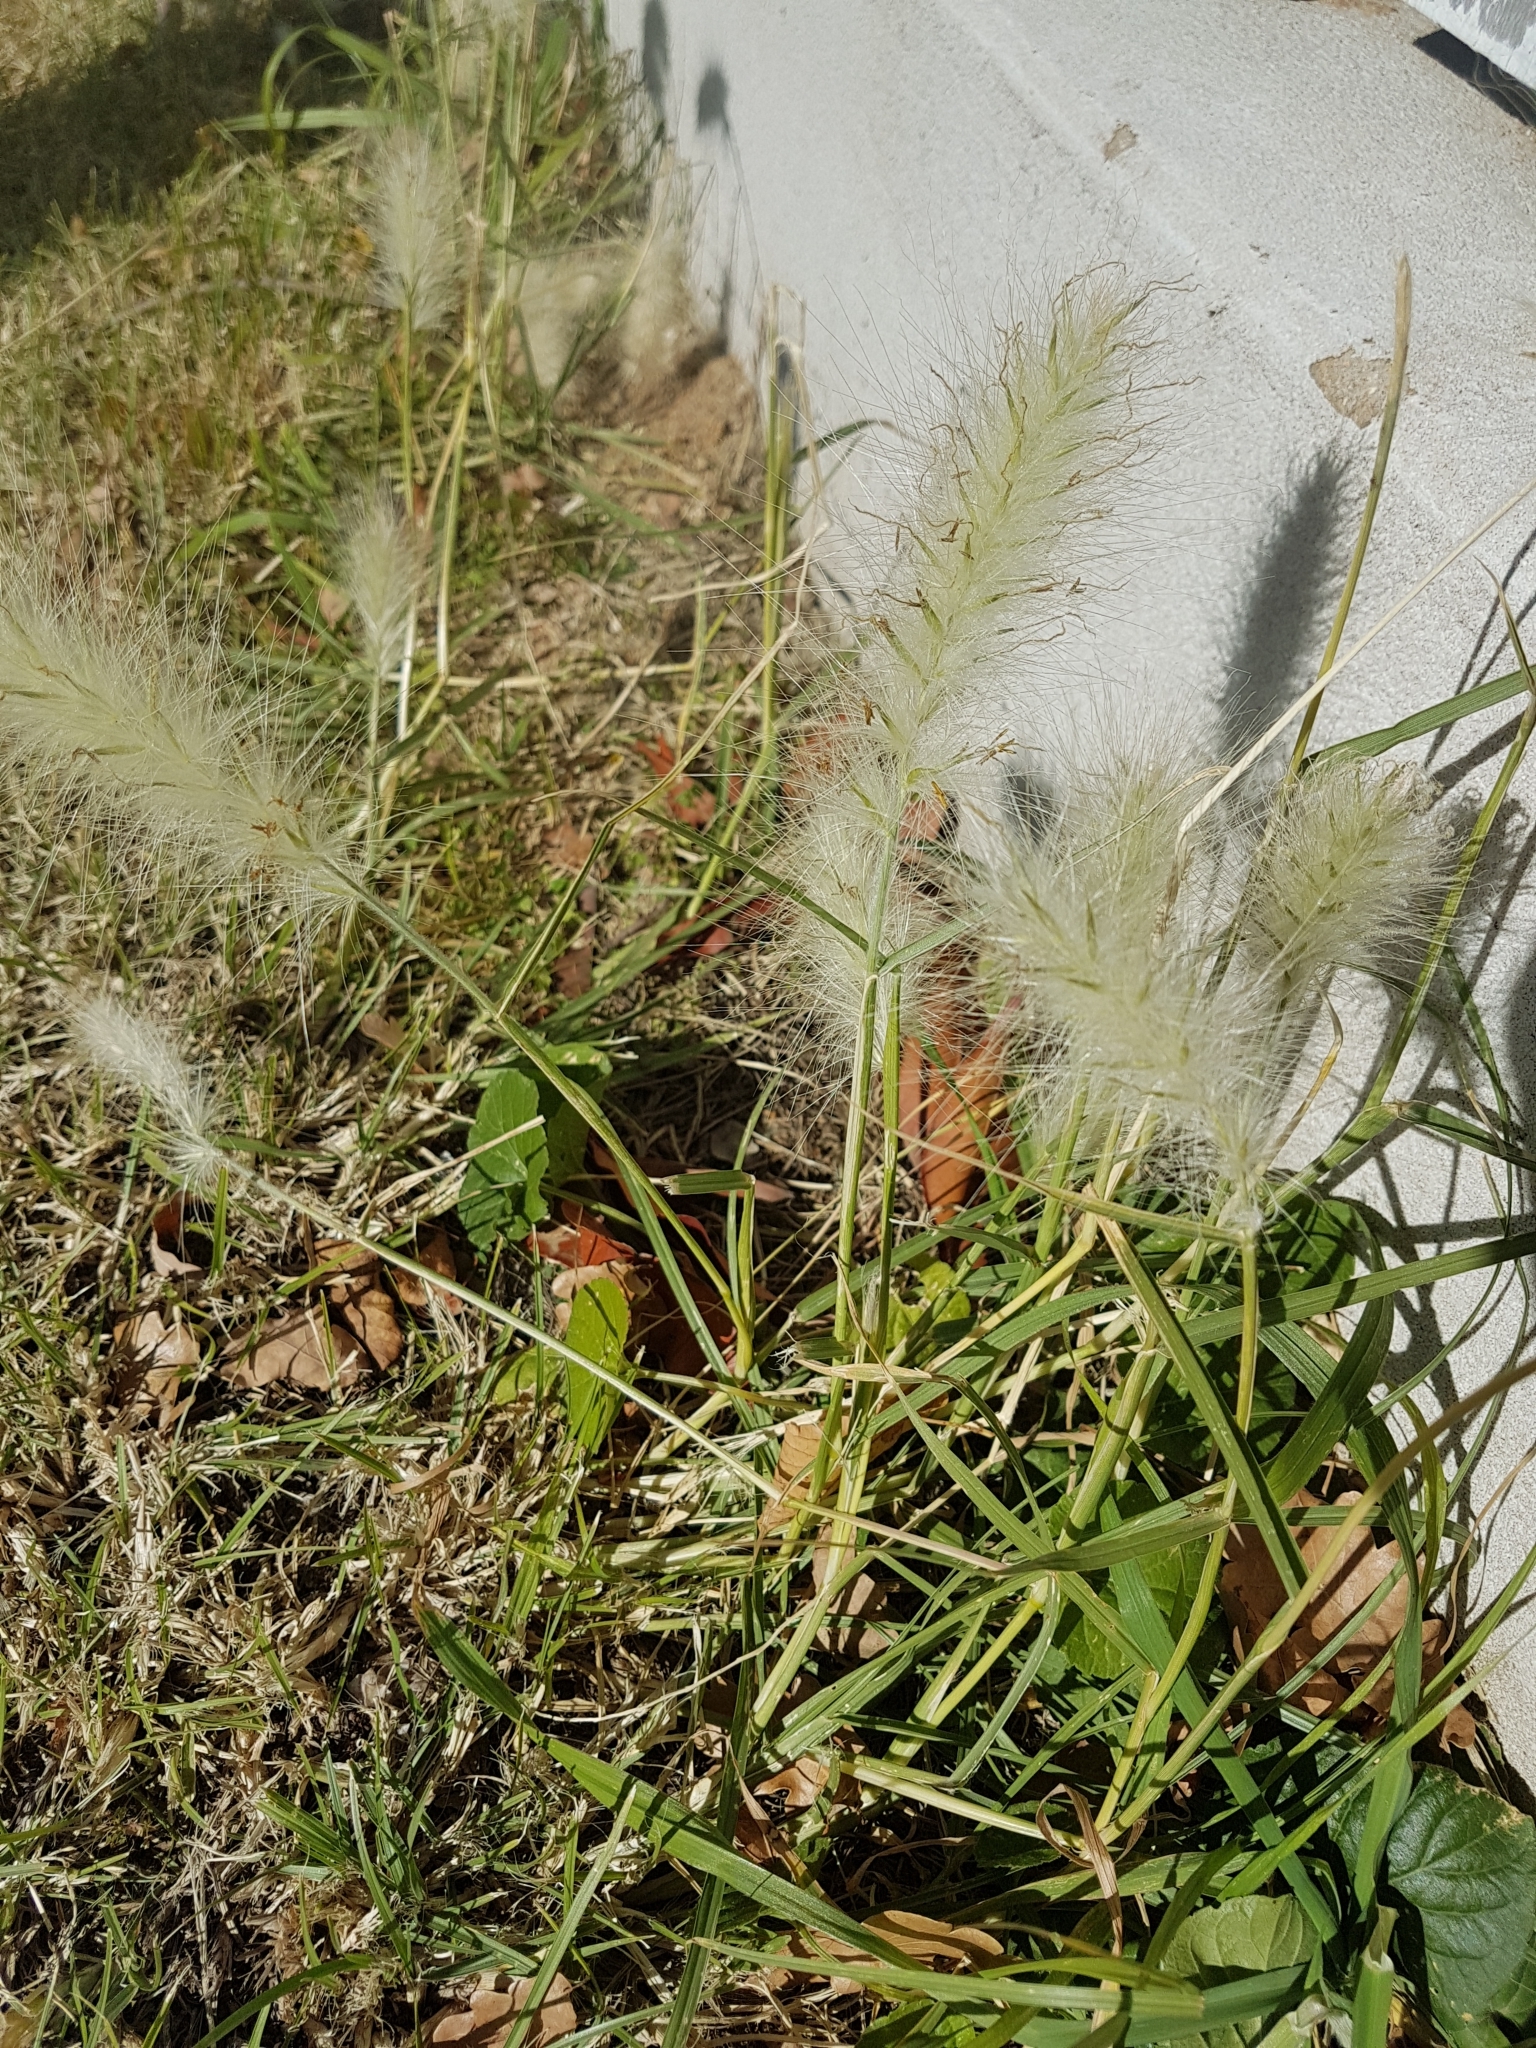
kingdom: Plantae
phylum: Tracheophyta
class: Liliopsida
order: Poales
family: Poaceae
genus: Cenchrus
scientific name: Cenchrus longisetus
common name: Feathertop
